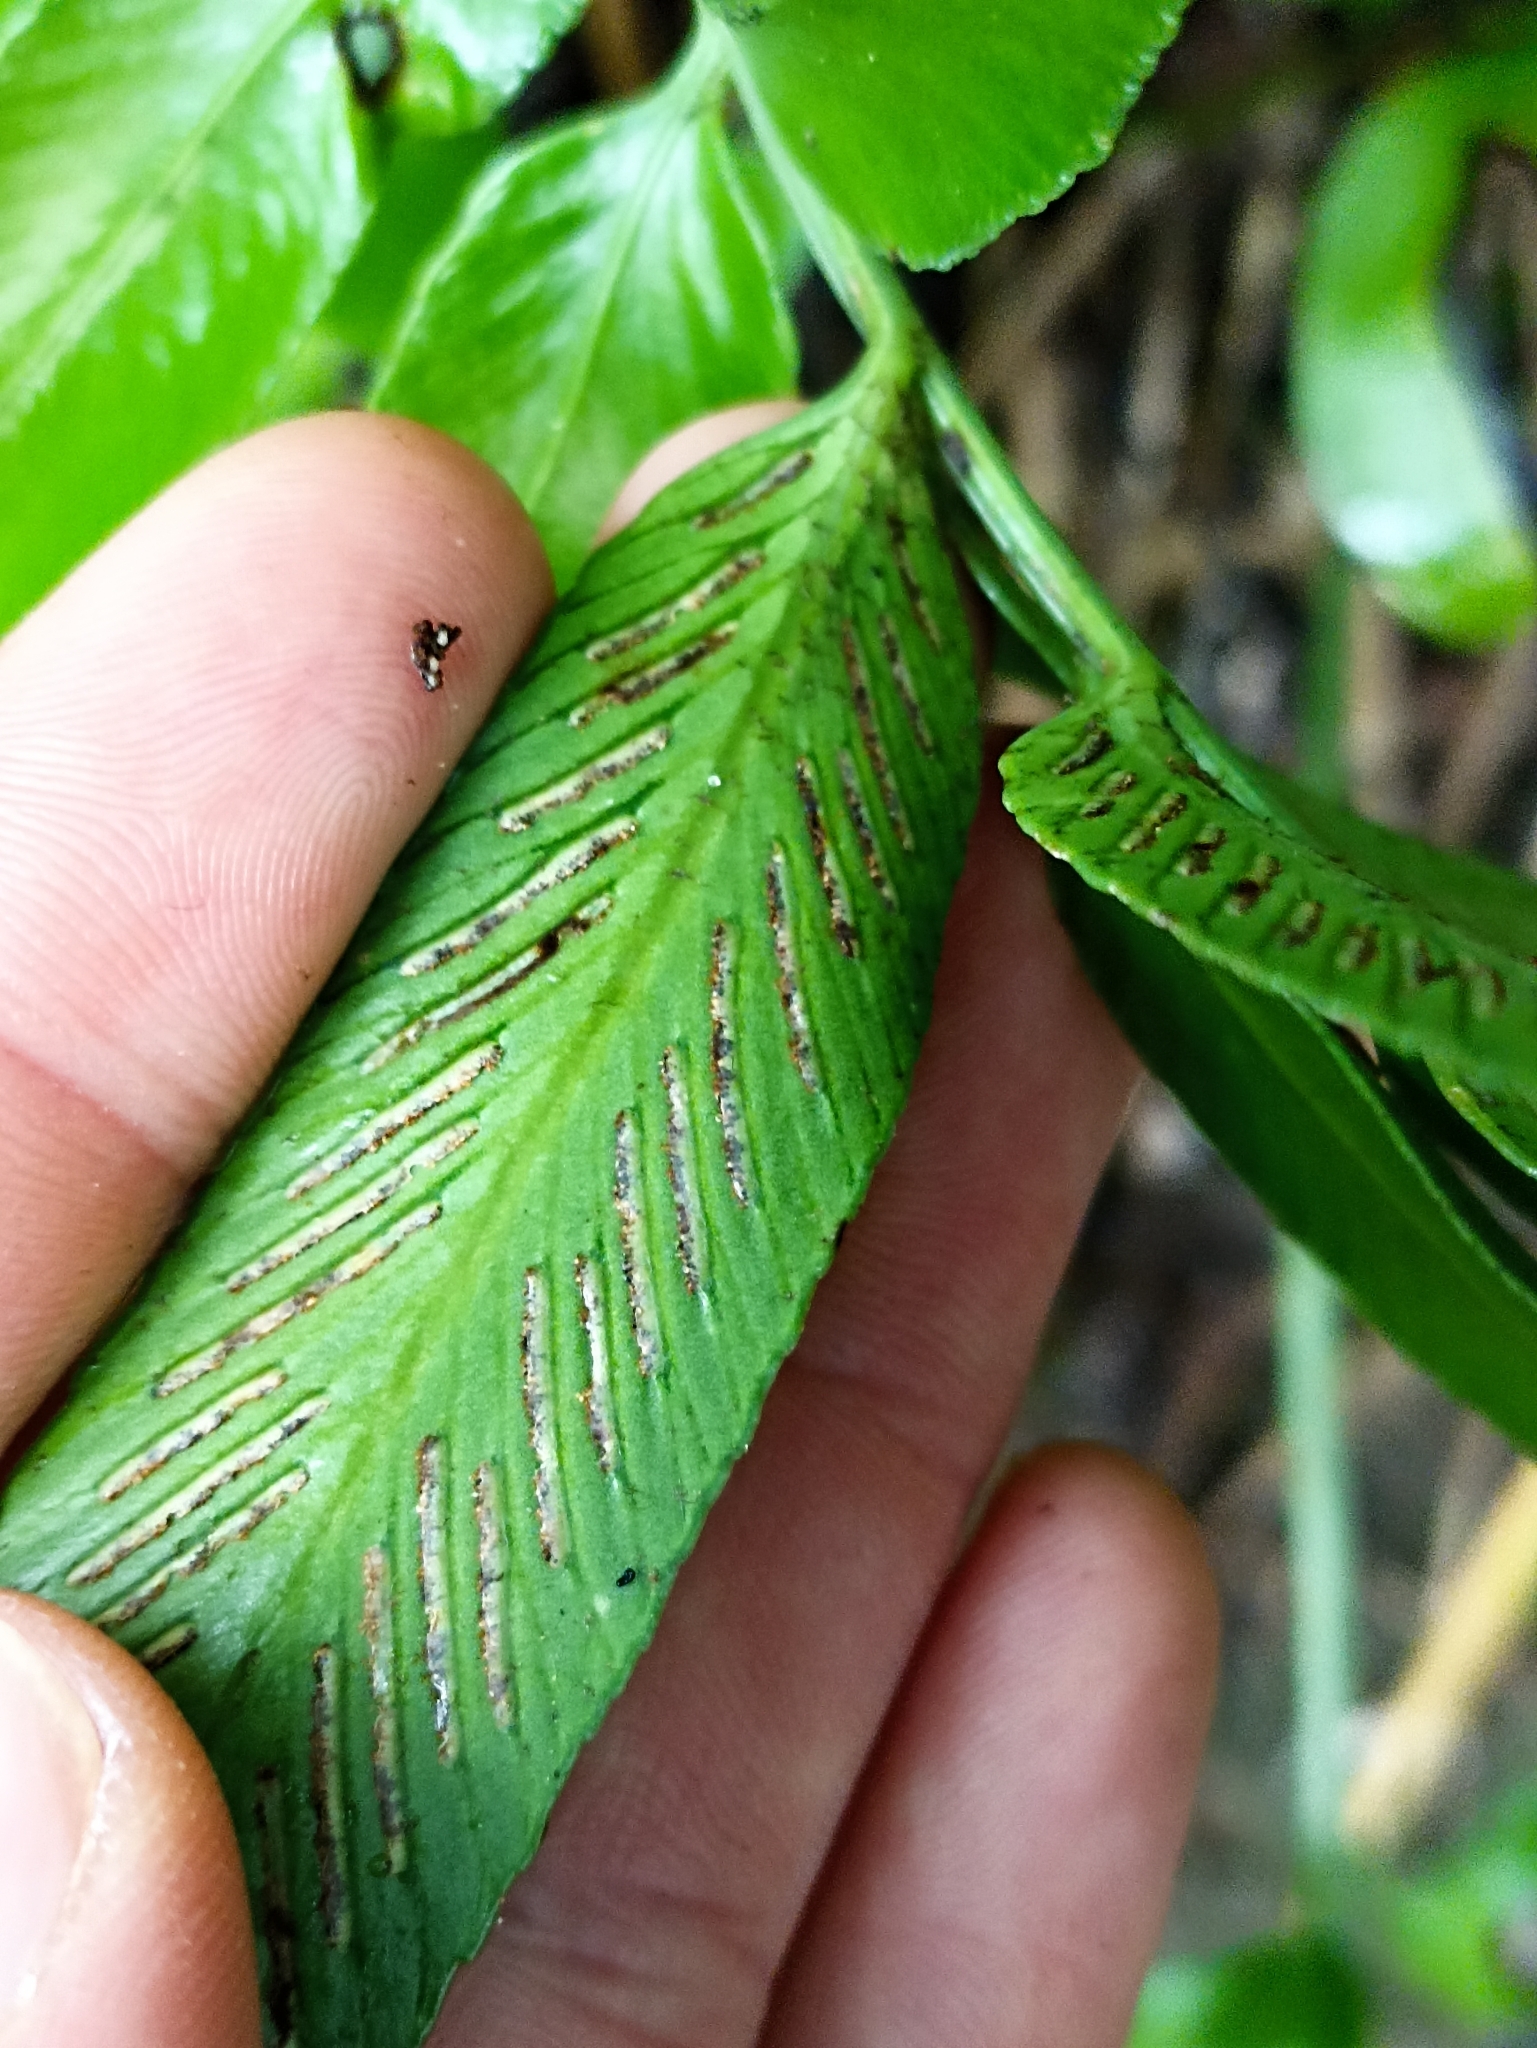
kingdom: Plantae
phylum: Tracheophyta
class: Polypodiopsida
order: Polypodiales
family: Aspleniaceae
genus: Asplenium
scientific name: Asplenium oblongifolium
